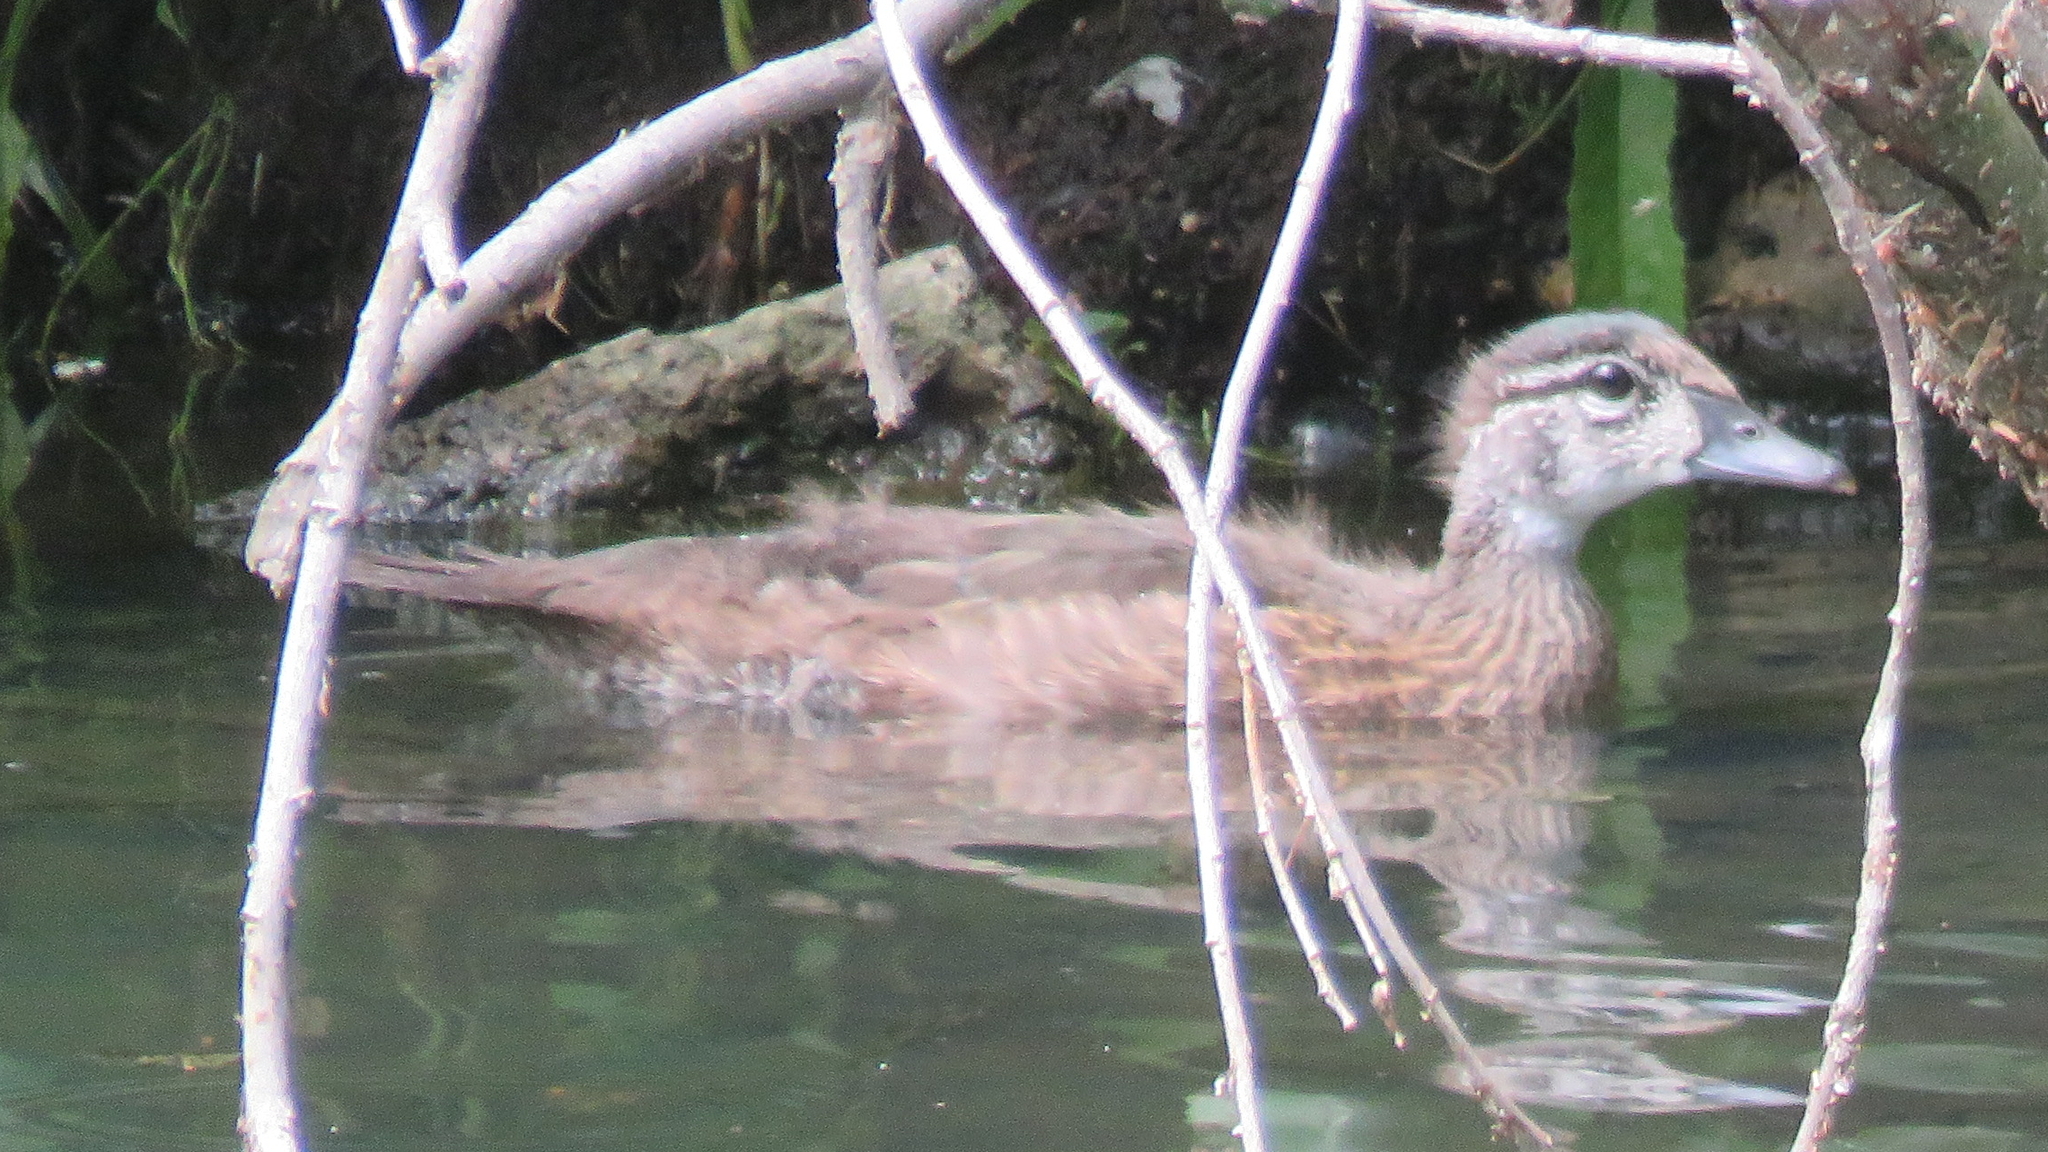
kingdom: Animalia
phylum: Chordata
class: Aves
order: Anseriformes
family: Anatidae
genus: Aix
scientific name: Aix sponsa
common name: Wood duck
